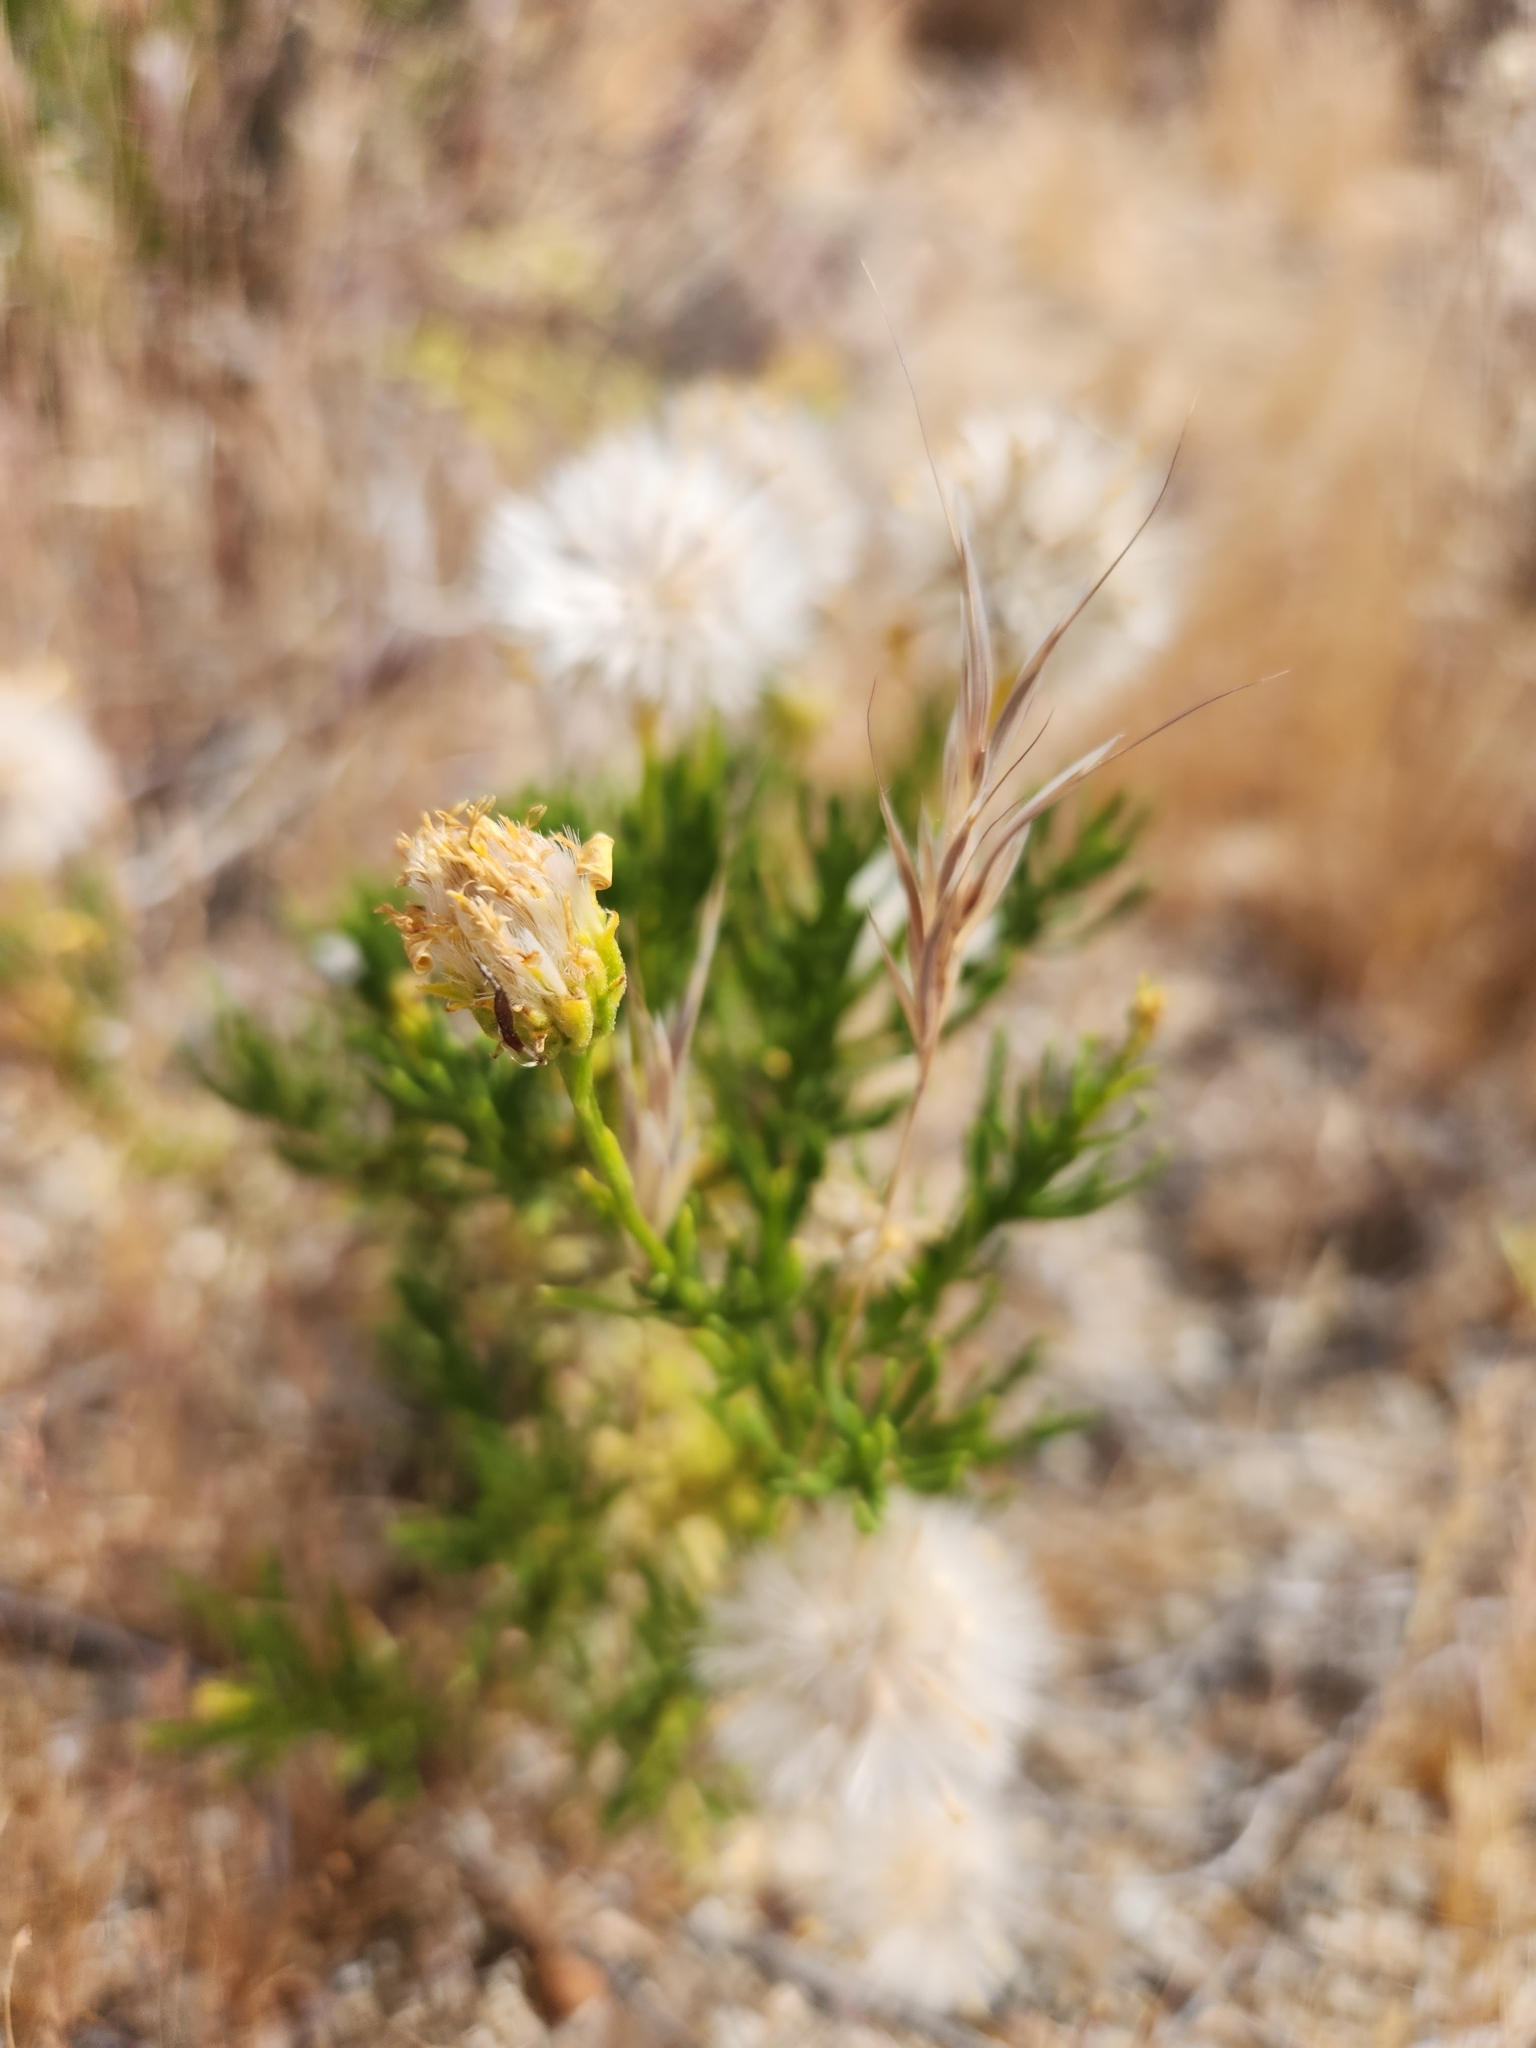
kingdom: Plantae
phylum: Tracheophyta
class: Magnoliopsida
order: Asterales
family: Asteraceae
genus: Ericameria
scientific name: Ericameria linearifolia
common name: Interior goldenbush
